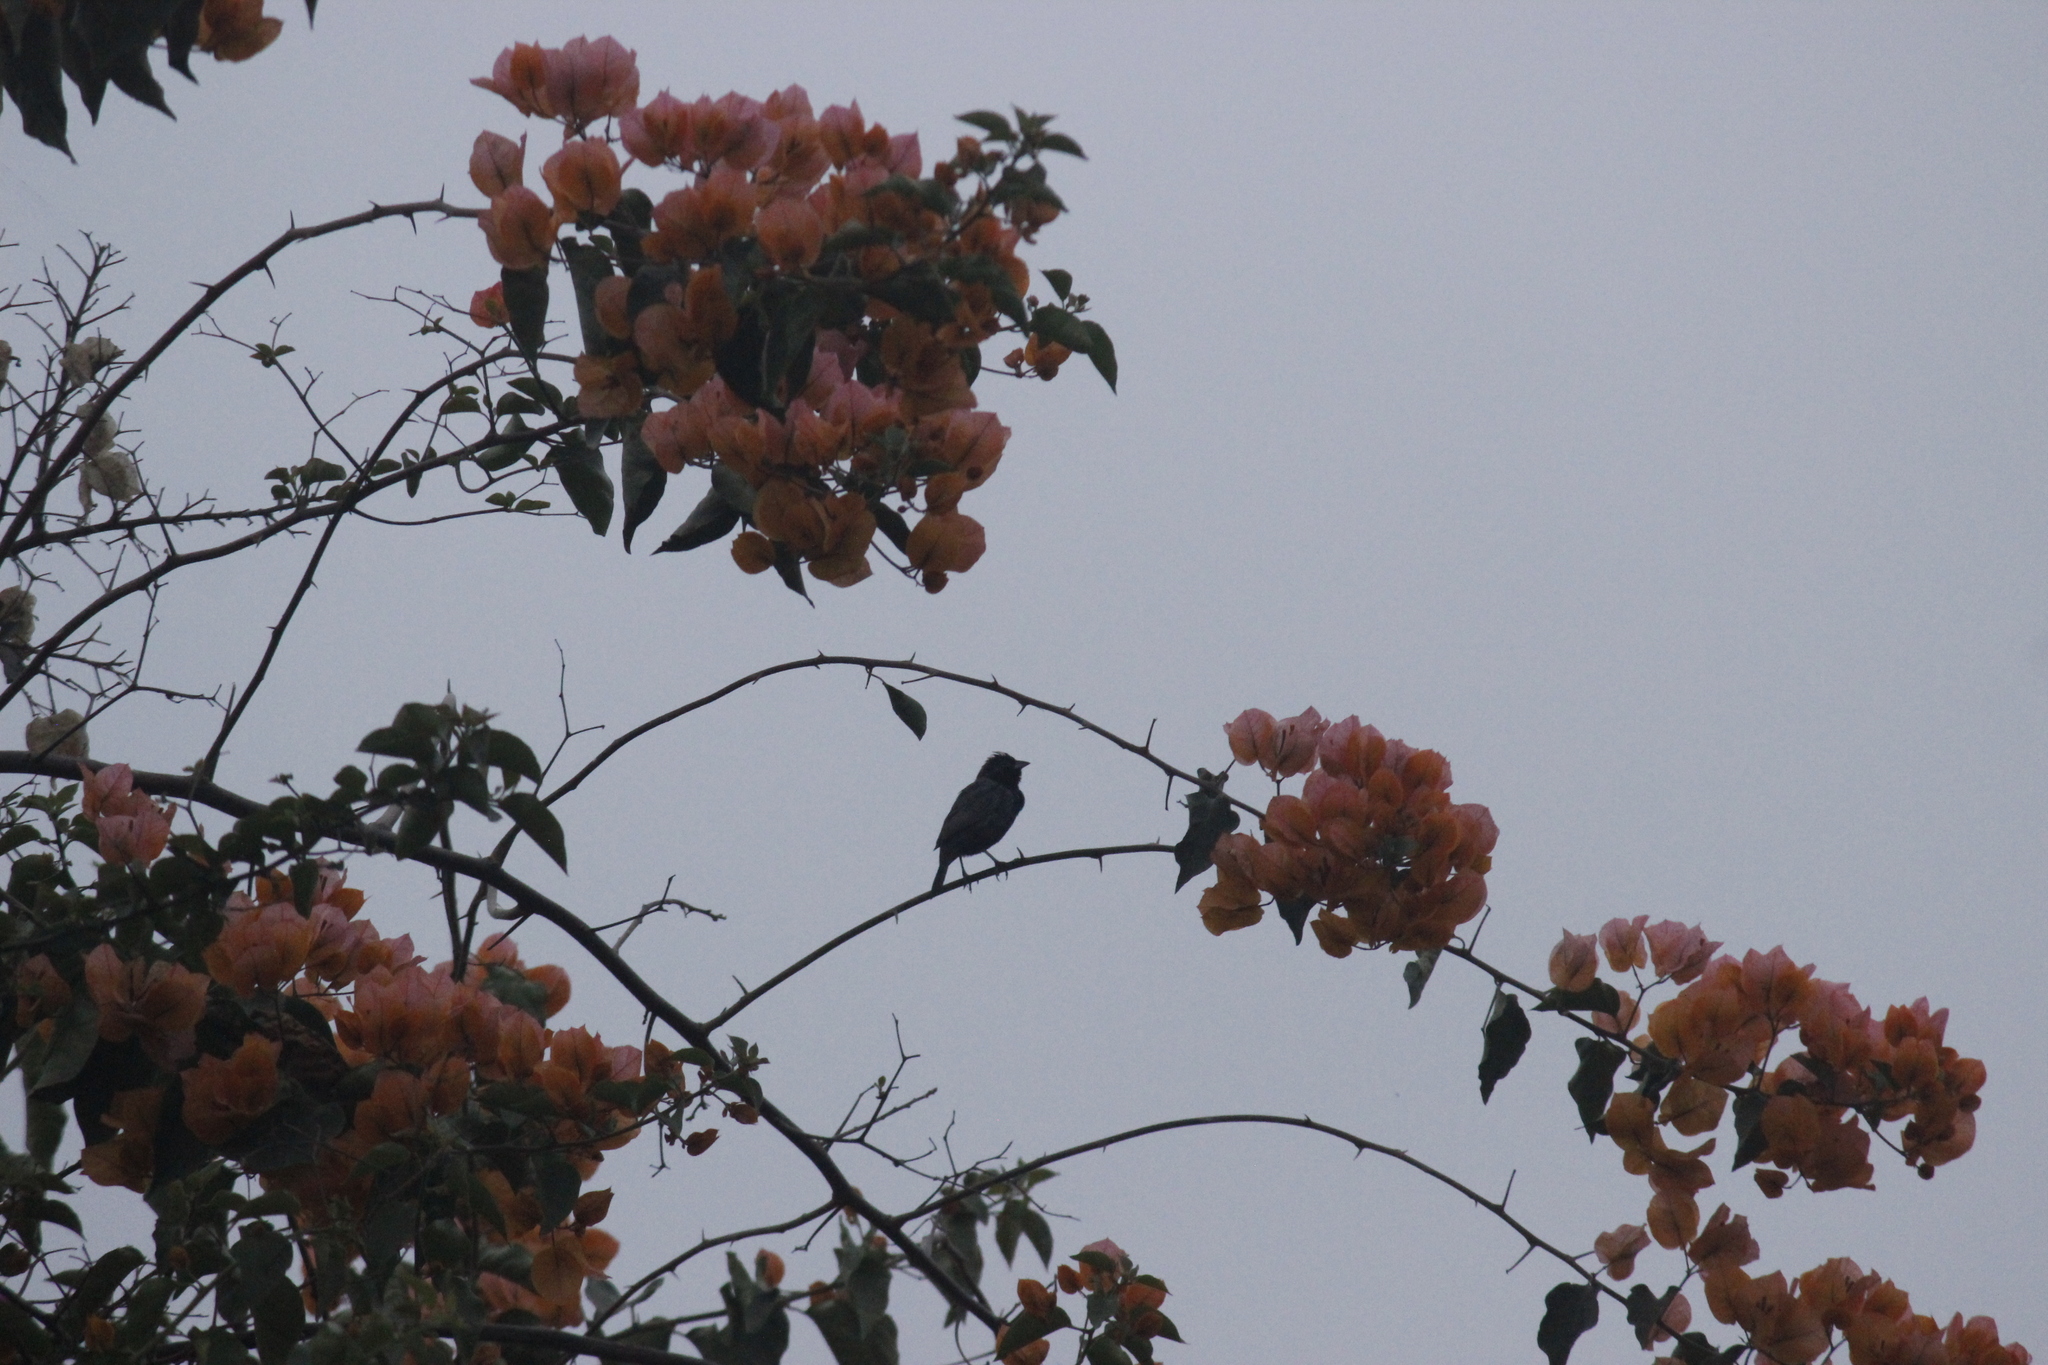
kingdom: Animalia
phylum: Chordata
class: Aves
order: Passeriformes
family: Thraupidae
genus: Volatinia
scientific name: Volatinia jacarina
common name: Blue-black grassquit
